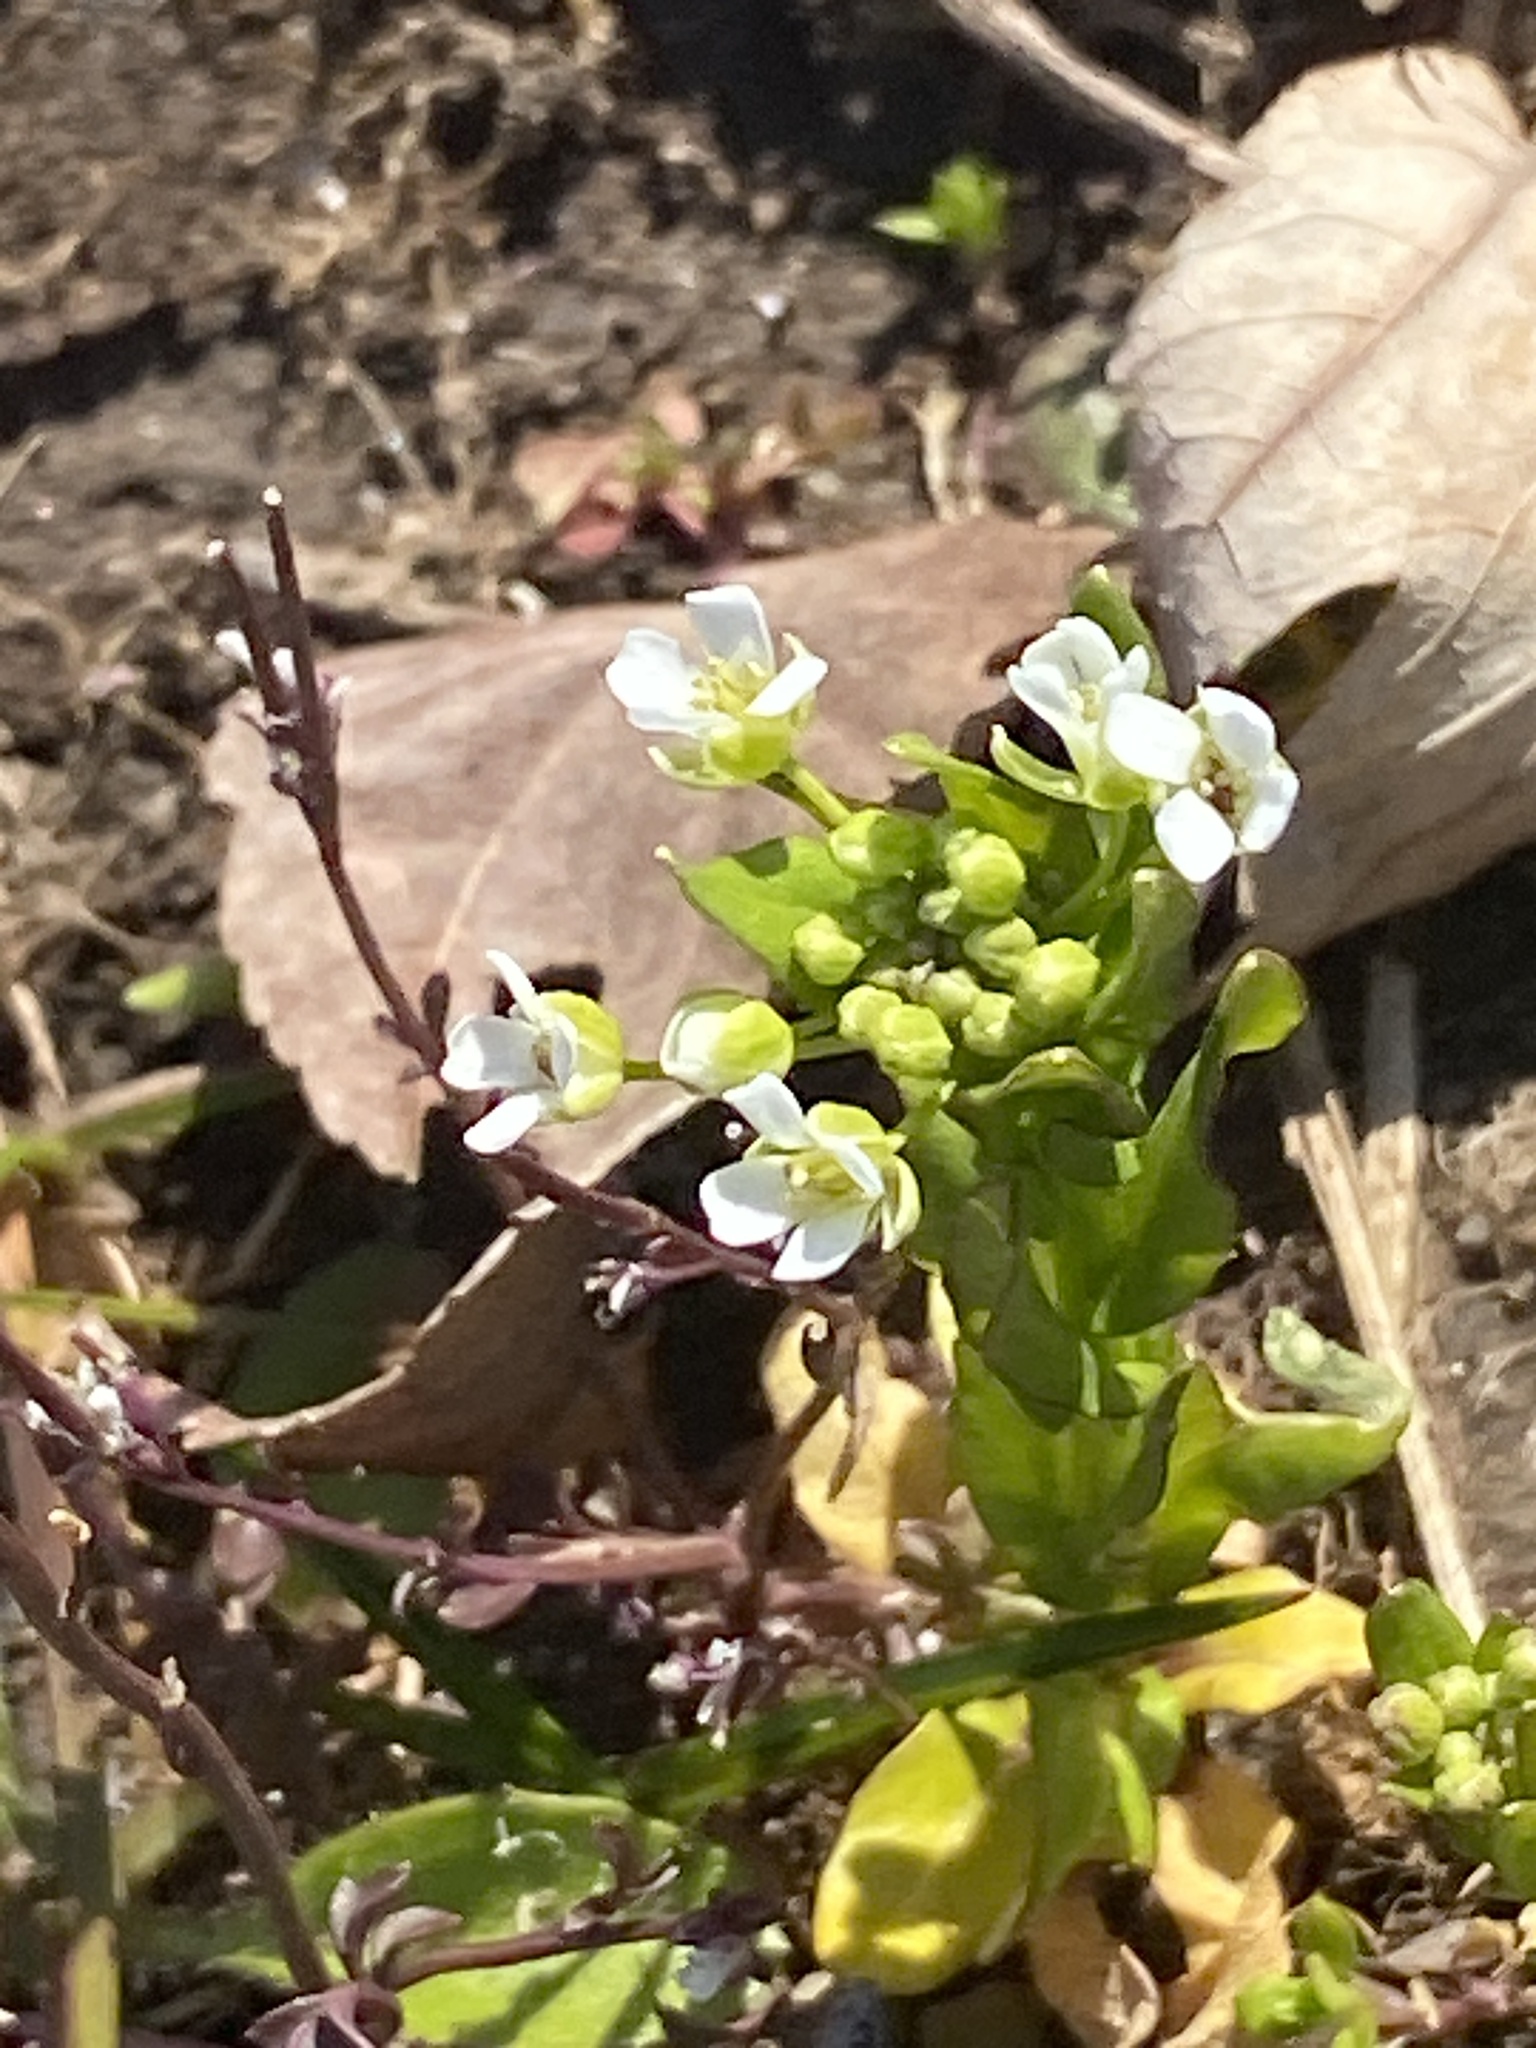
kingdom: Plantae
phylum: Tracheophyta
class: Magnoliopsida
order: Brassicales
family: Brassicaceae
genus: Thlaspi
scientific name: Thlaspi arvense
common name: Field pennycress
